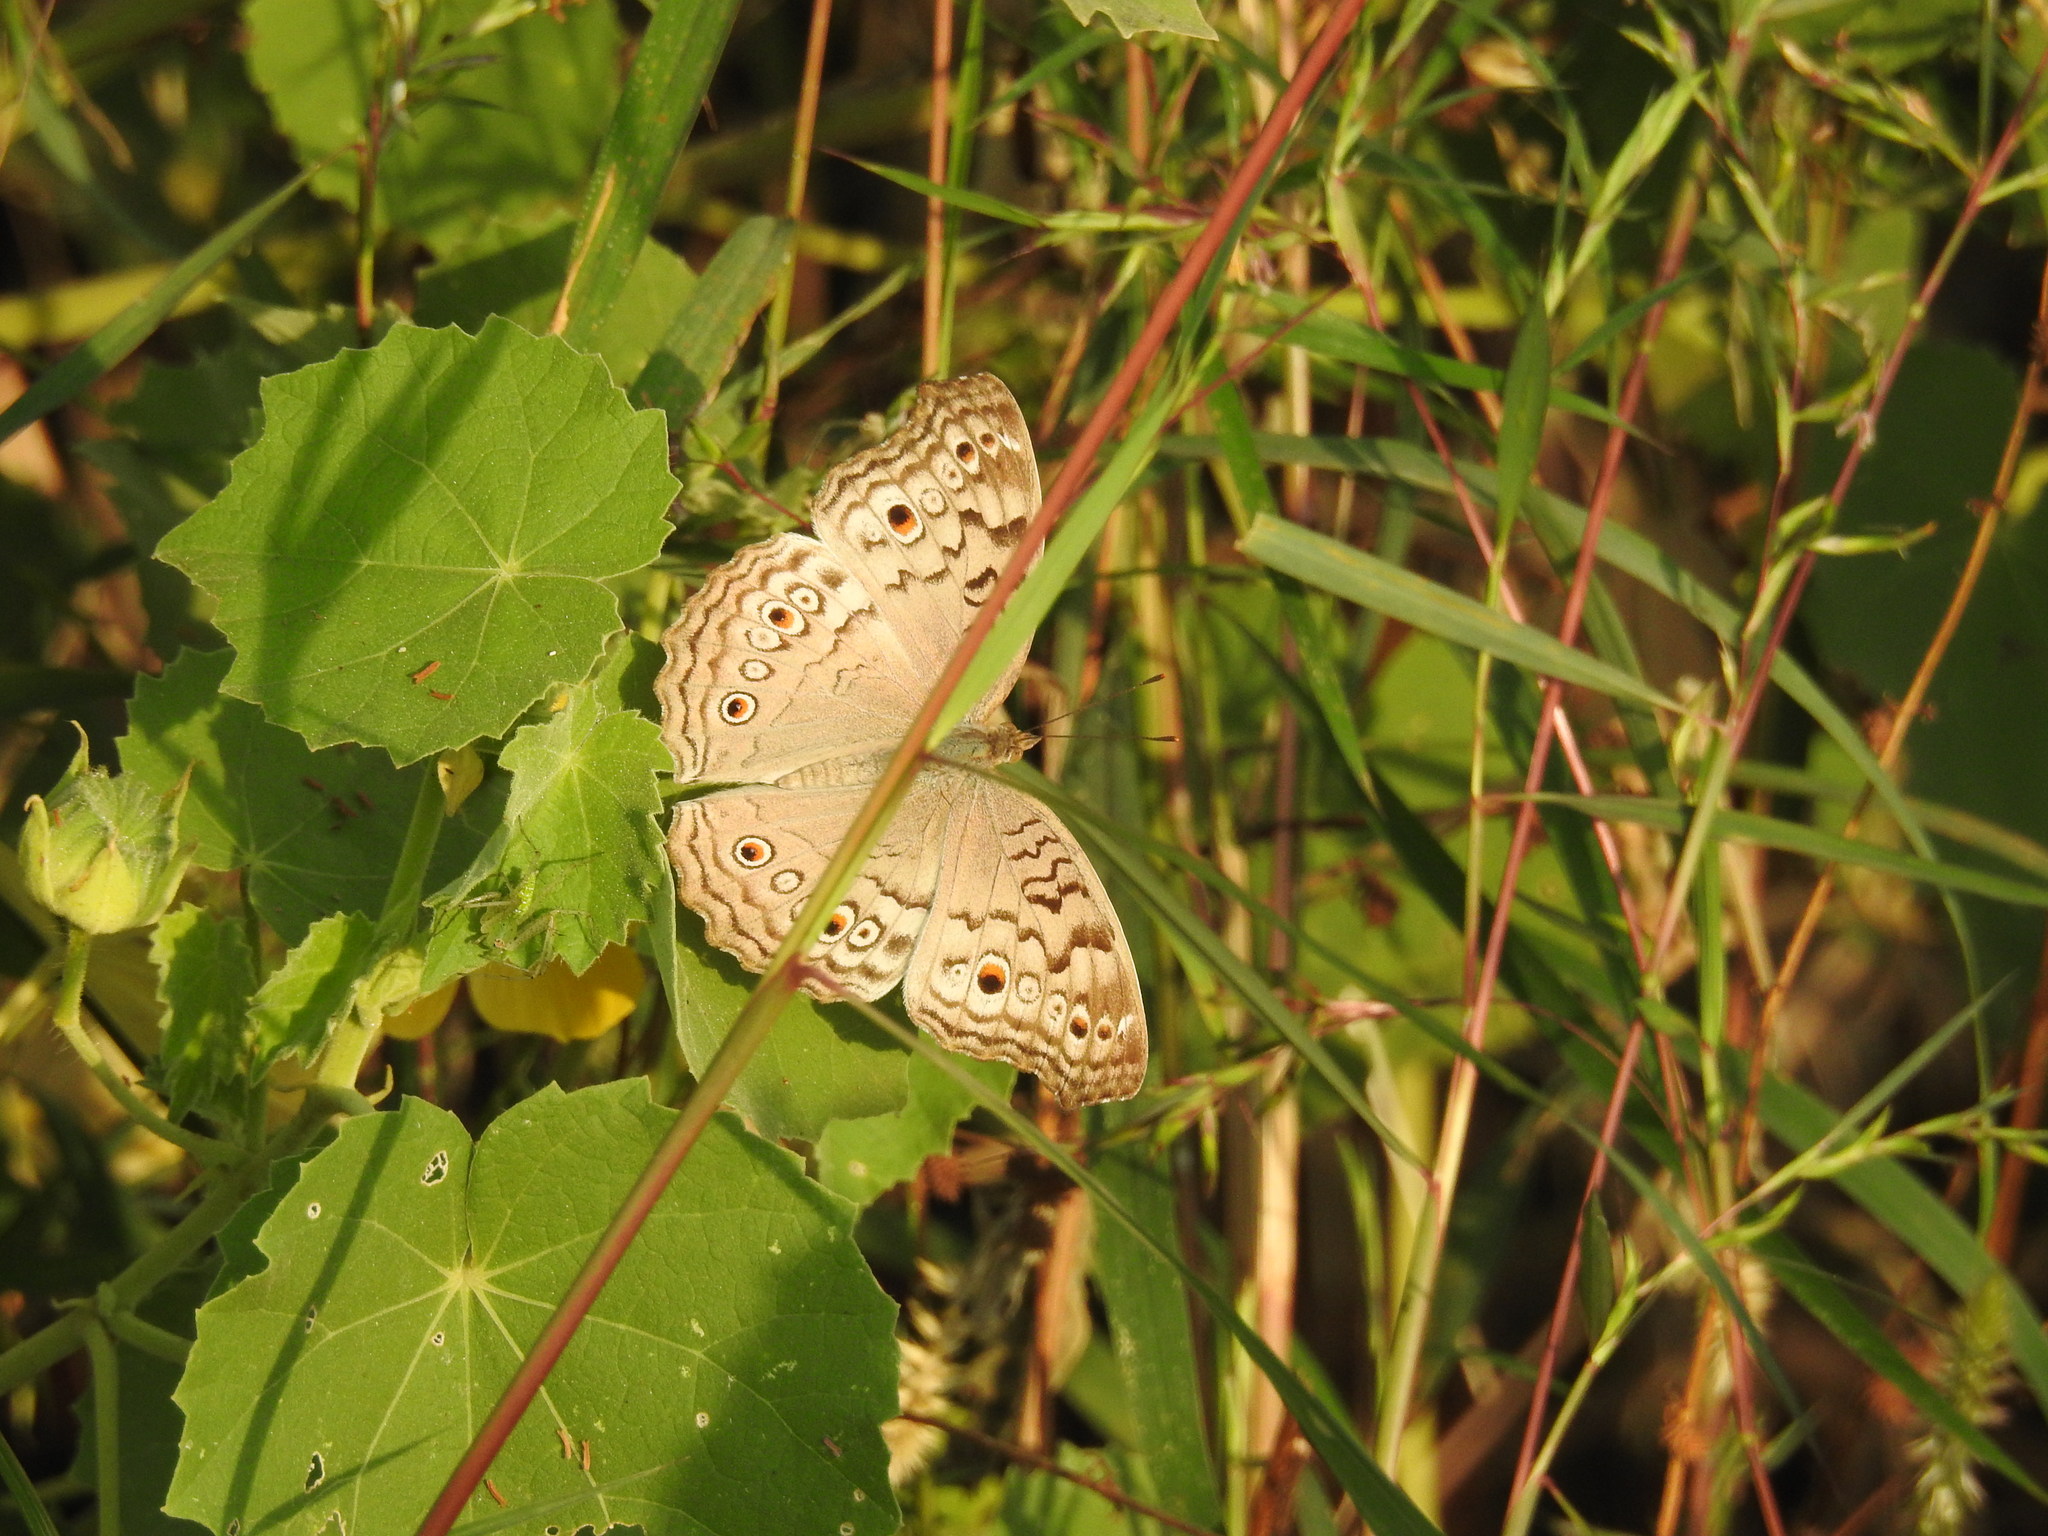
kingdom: Animalia
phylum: Arthropoda
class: Insecta
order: Lepidoptera
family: Nymphalidae
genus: Junonia
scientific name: Junonia atlites
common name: Grey pansy
